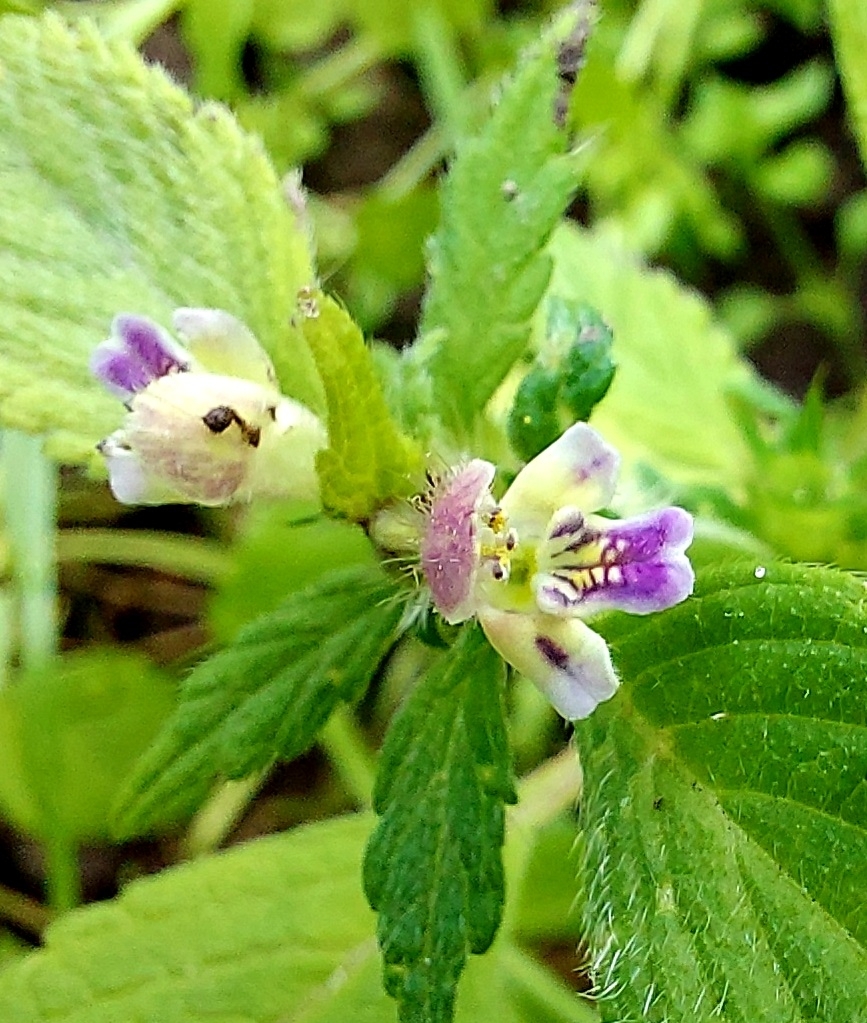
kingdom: Plantae
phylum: Tracheophyta
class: Magnoliopsida
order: Lamiales
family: Lamiaceae
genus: Galeopsis
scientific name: Galeopsis bifida
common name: Bifid hemp-nettle
